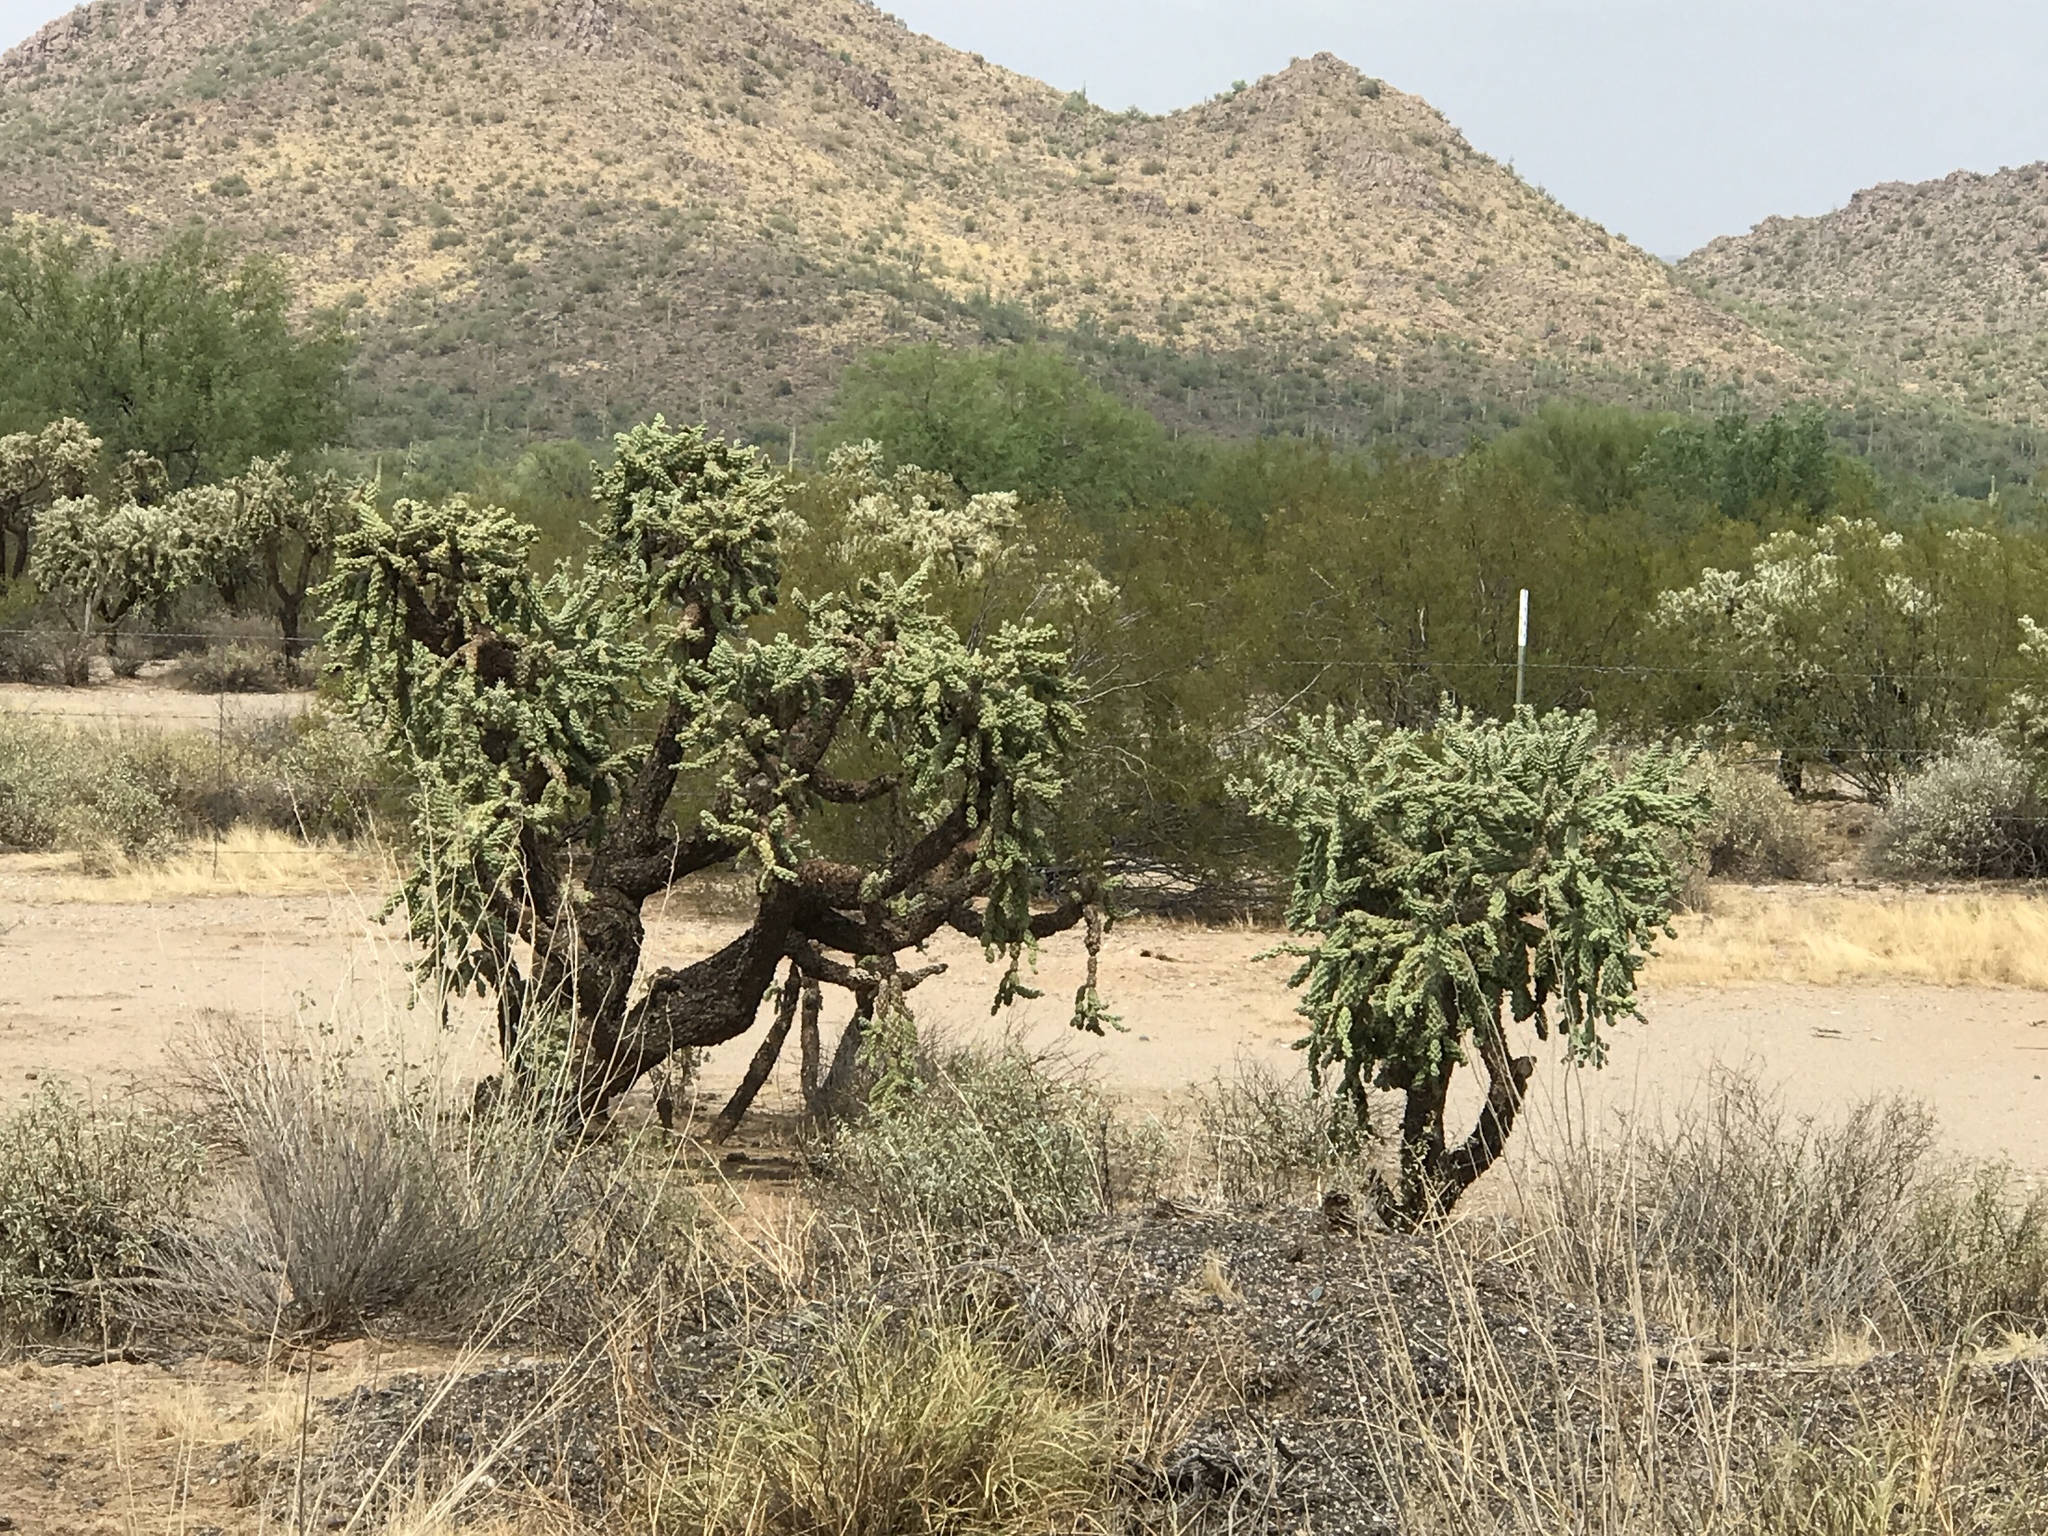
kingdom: Plantae
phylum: Tracheophyta
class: Magnoliopsida
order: Caryophyllales
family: Cactaceae
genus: Cylindropuntia
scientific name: Cylindropuntia fulgida
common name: Jumping cholla
